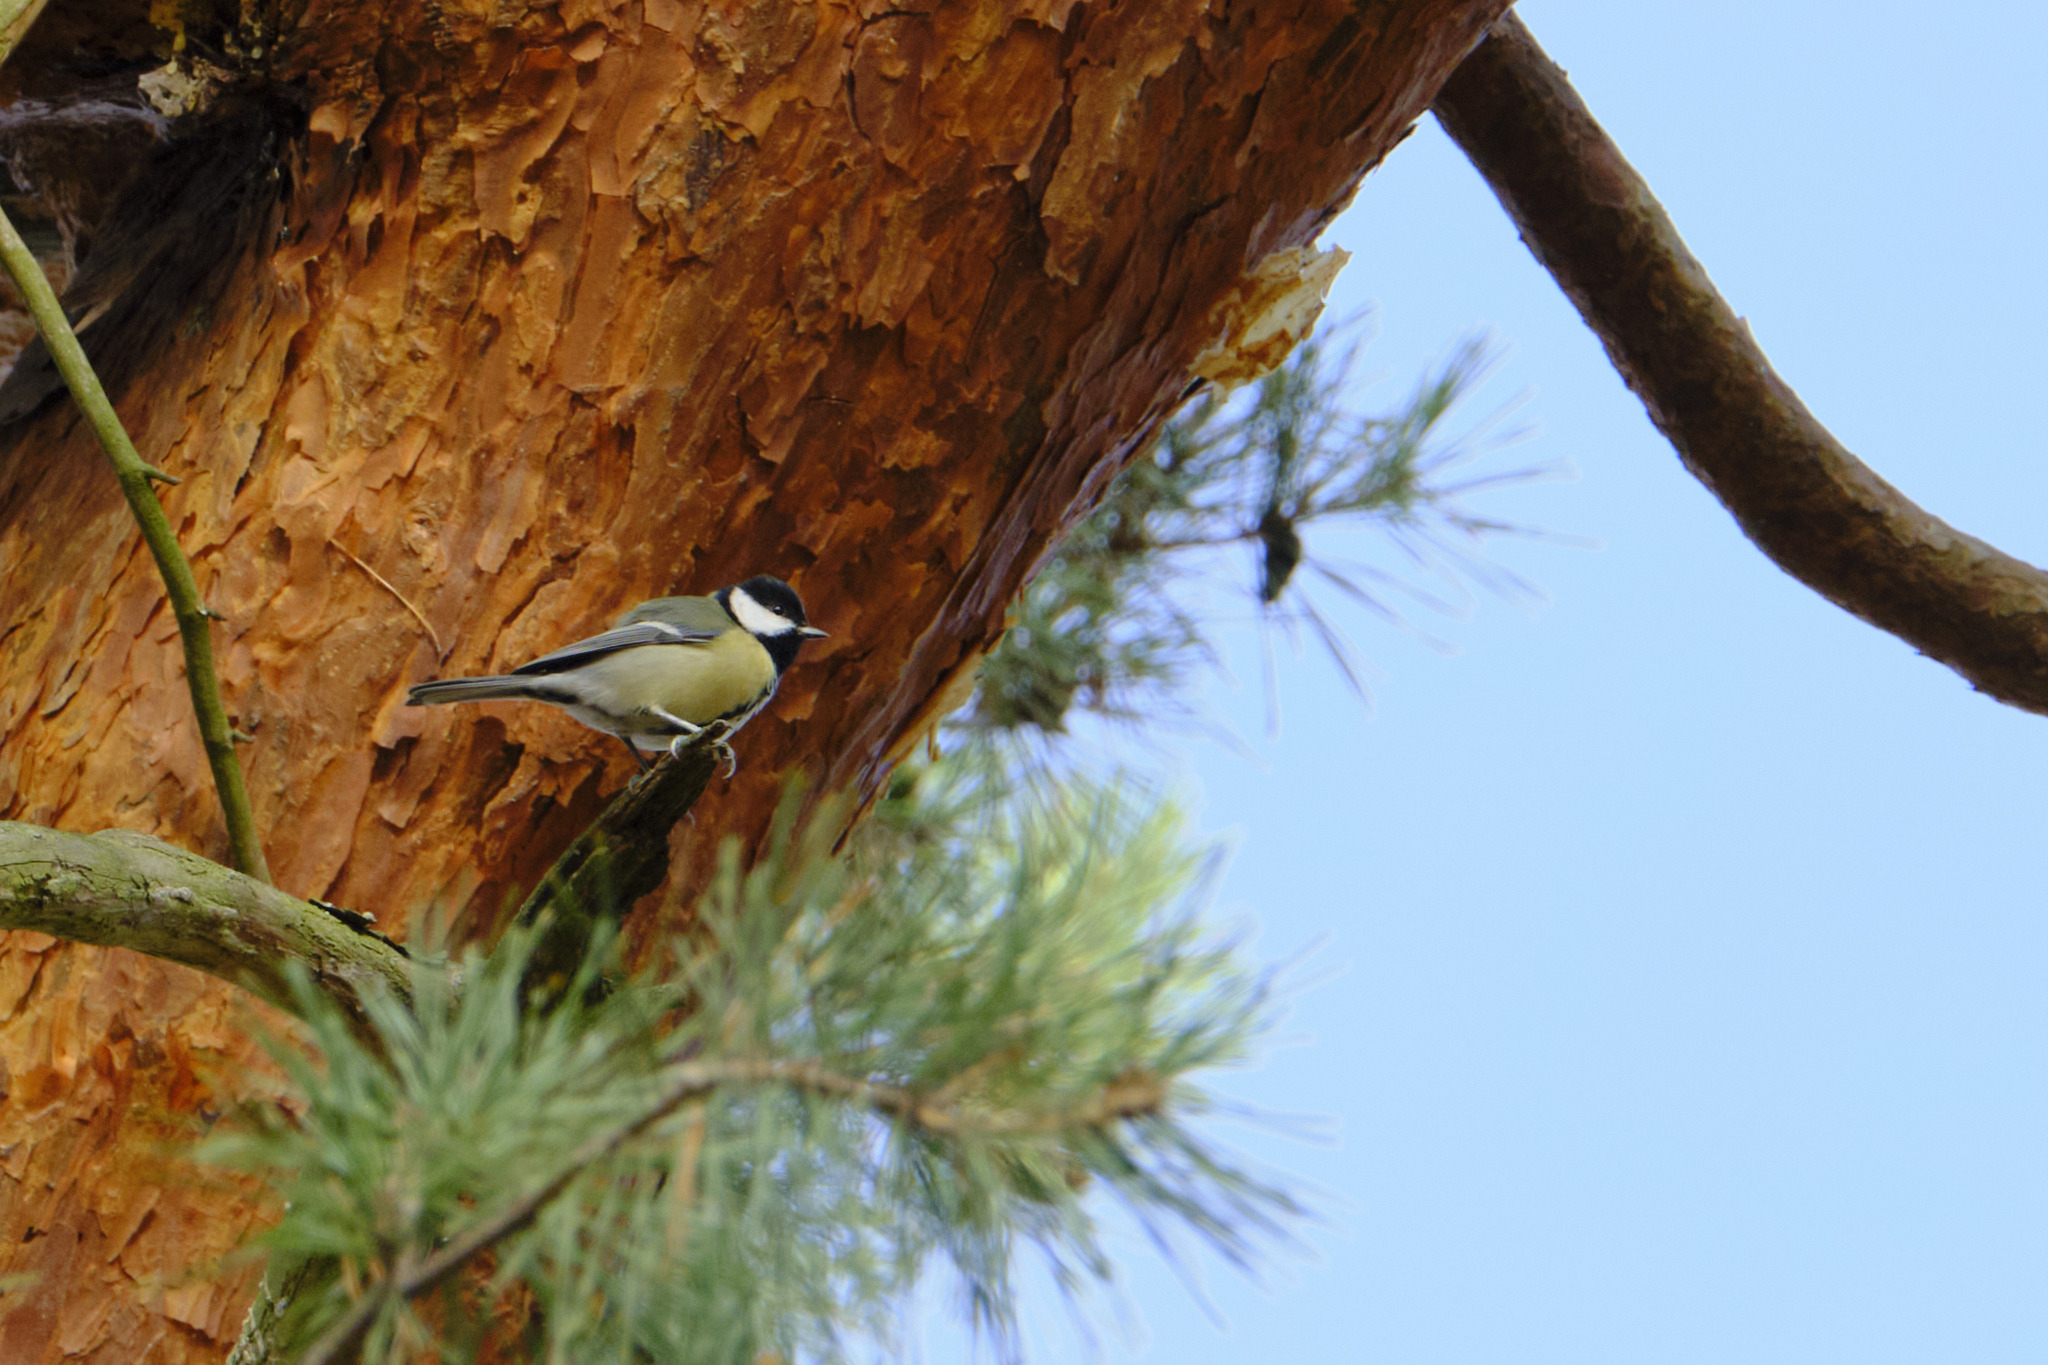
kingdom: Animalia
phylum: Chordata
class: Aves
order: Passeriformes
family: Paridae
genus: Parus
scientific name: Parus major
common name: Great tit
